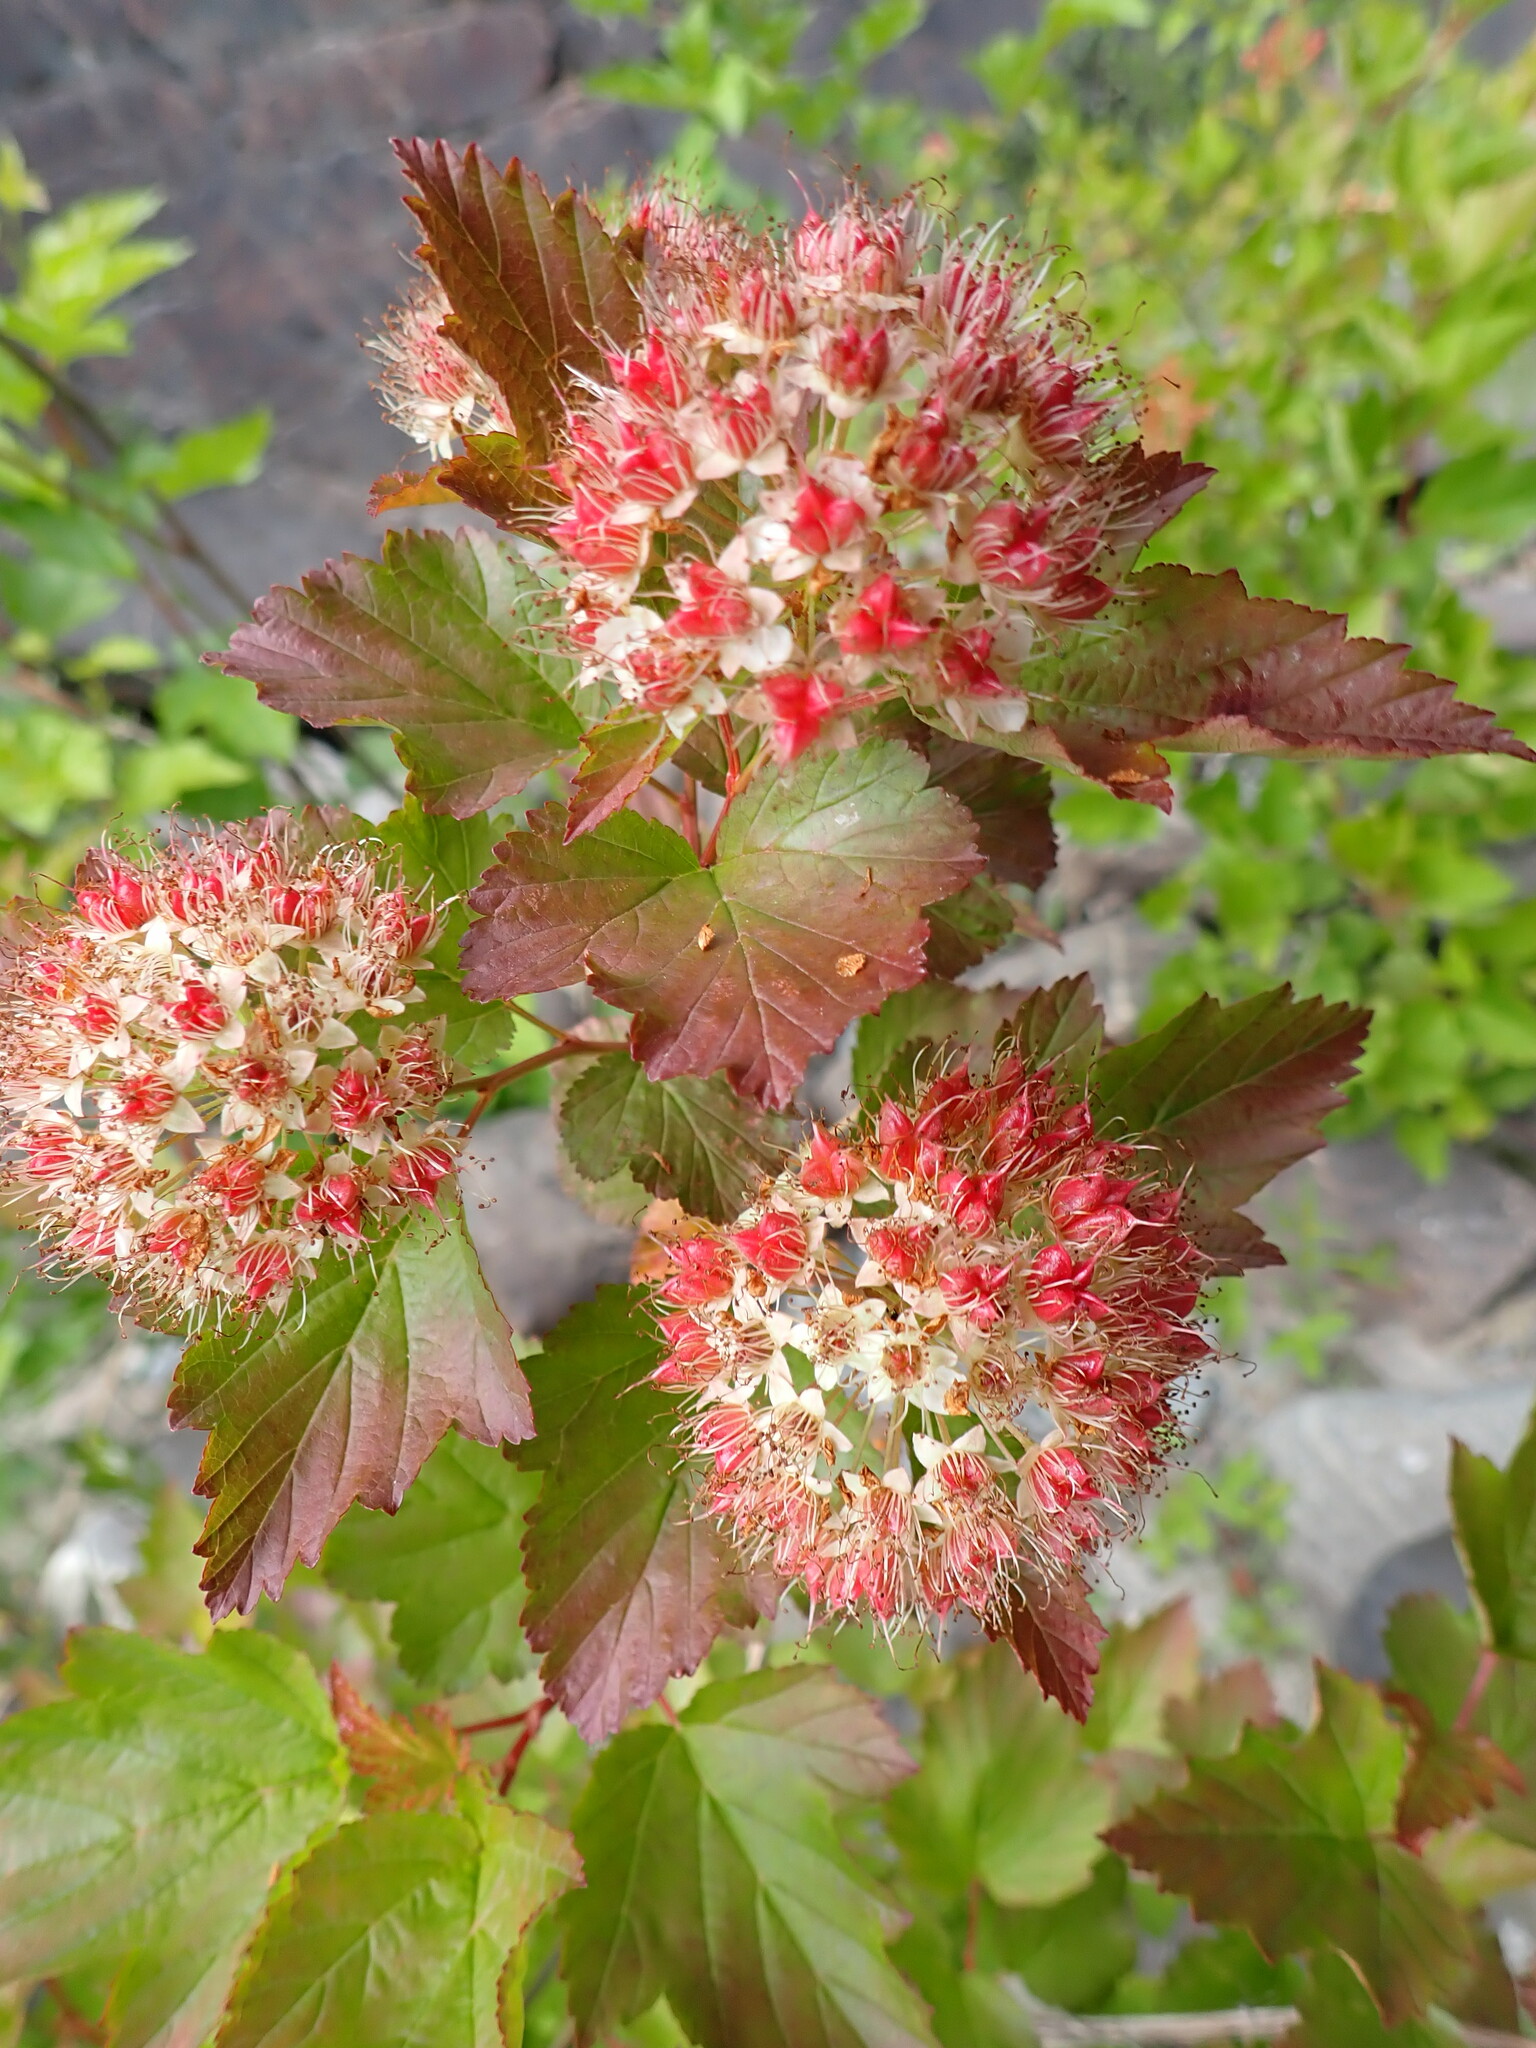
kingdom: Plantae
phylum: Tracheophyta
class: Magnoliopsida
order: Rosales
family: Rosaceae
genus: Physocarpus
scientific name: Physocarpus opulifolius
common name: Ninebark
